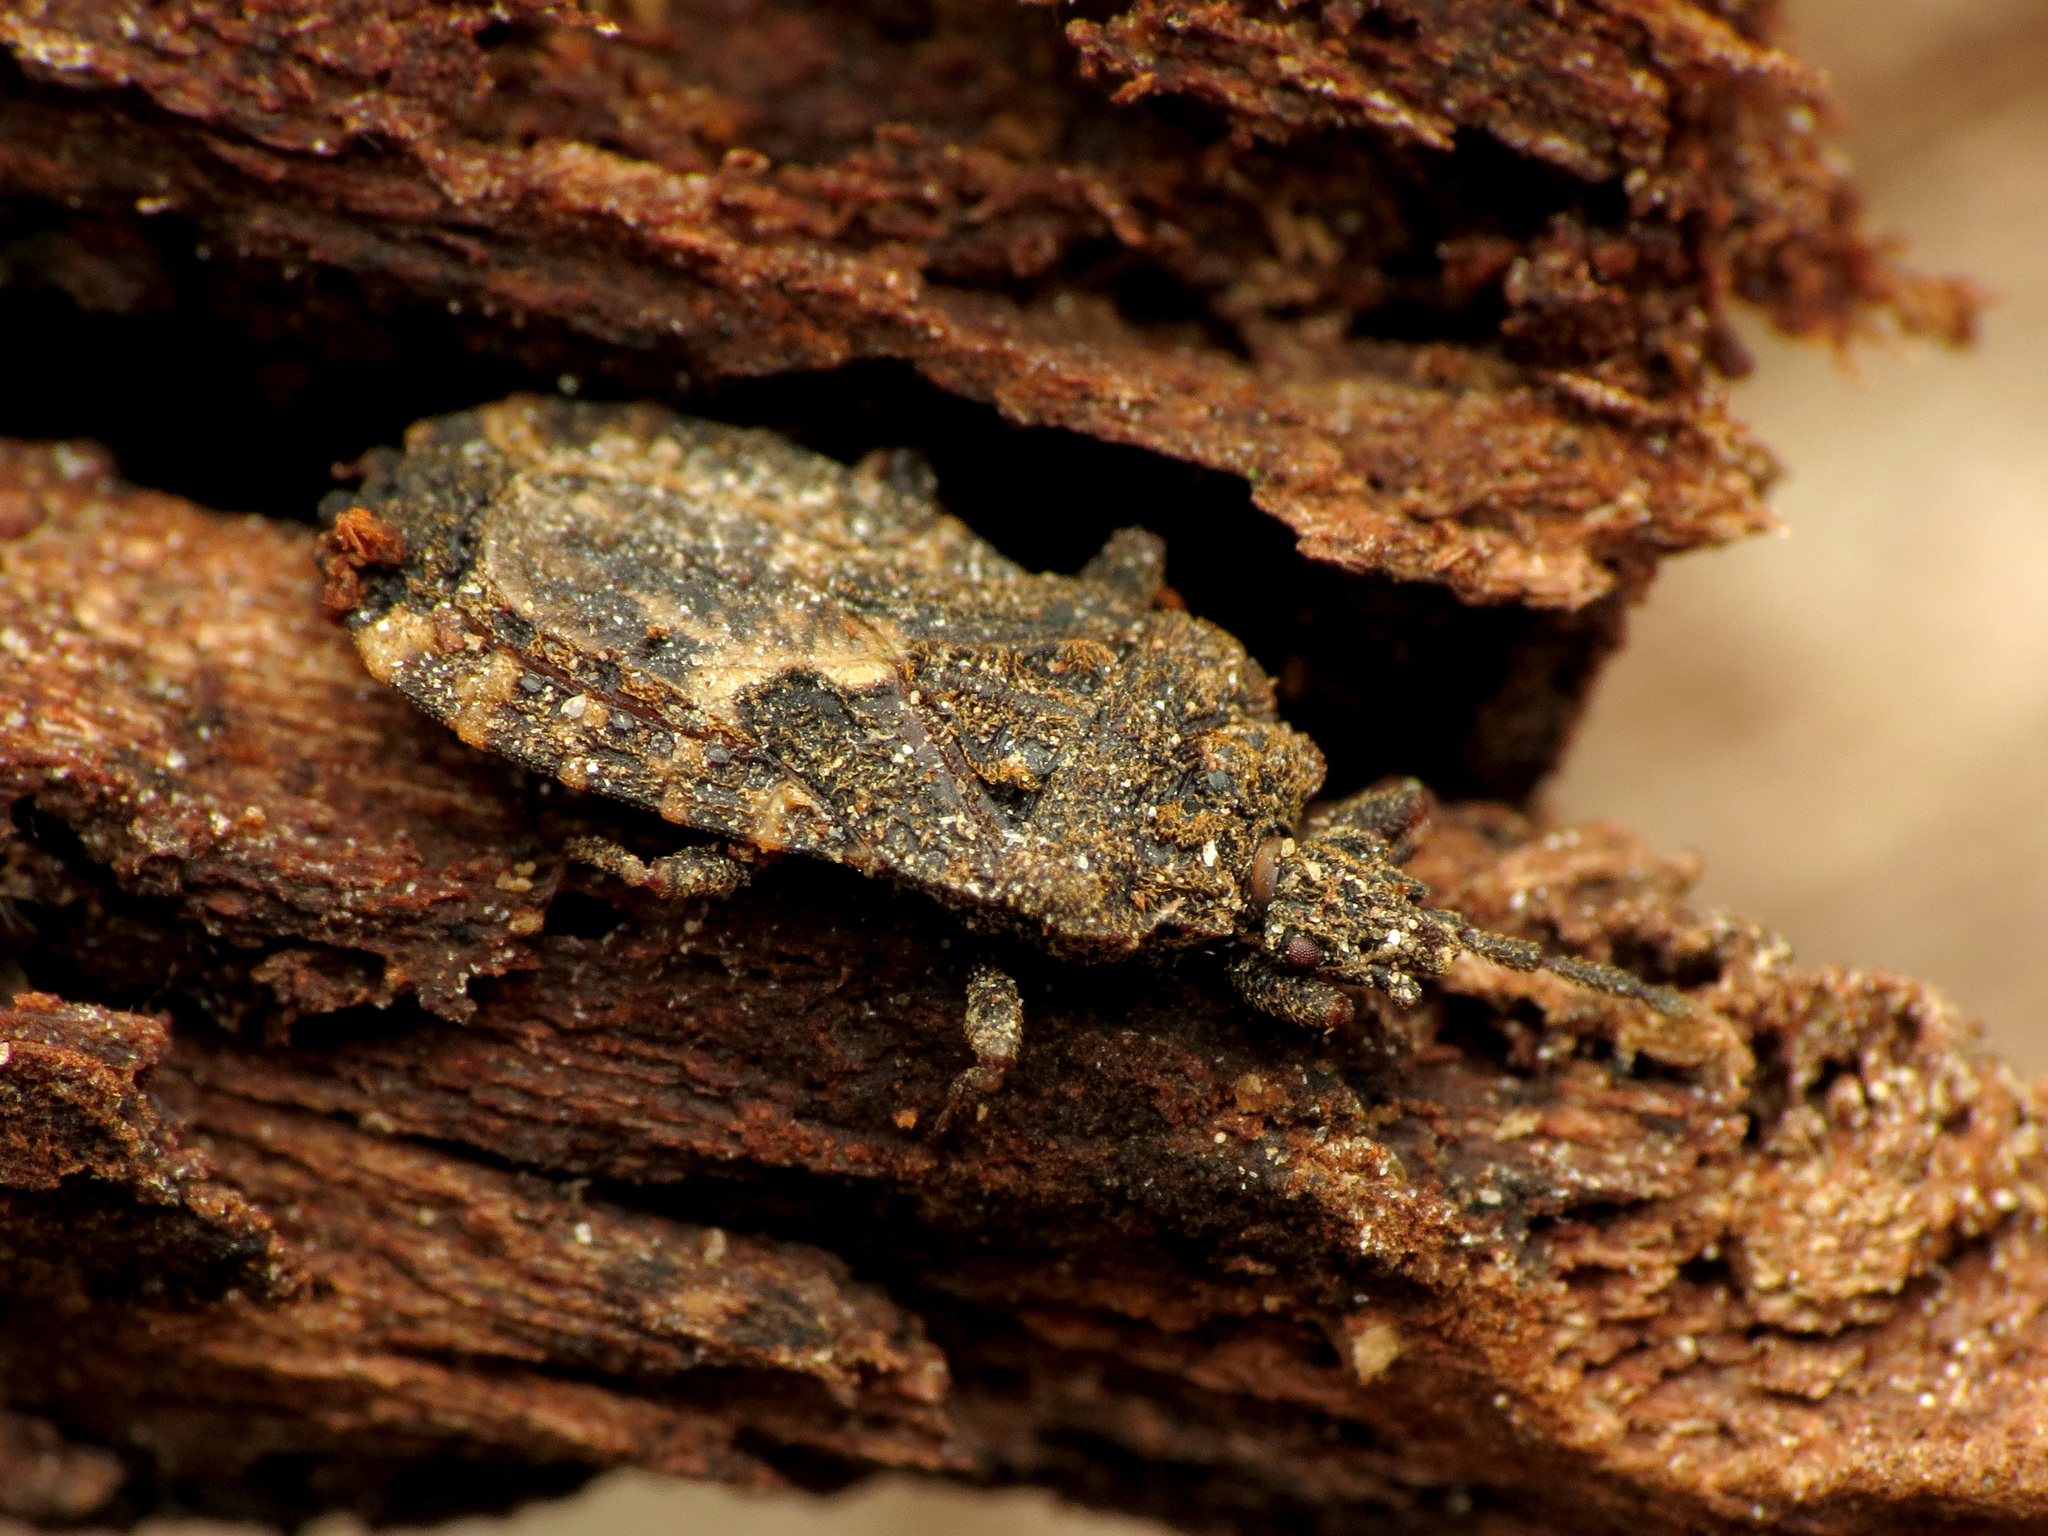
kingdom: Animalia
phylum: Arthropoda
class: Insecta
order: Hemiptera
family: Aradidae
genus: Mezira
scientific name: Mezira
